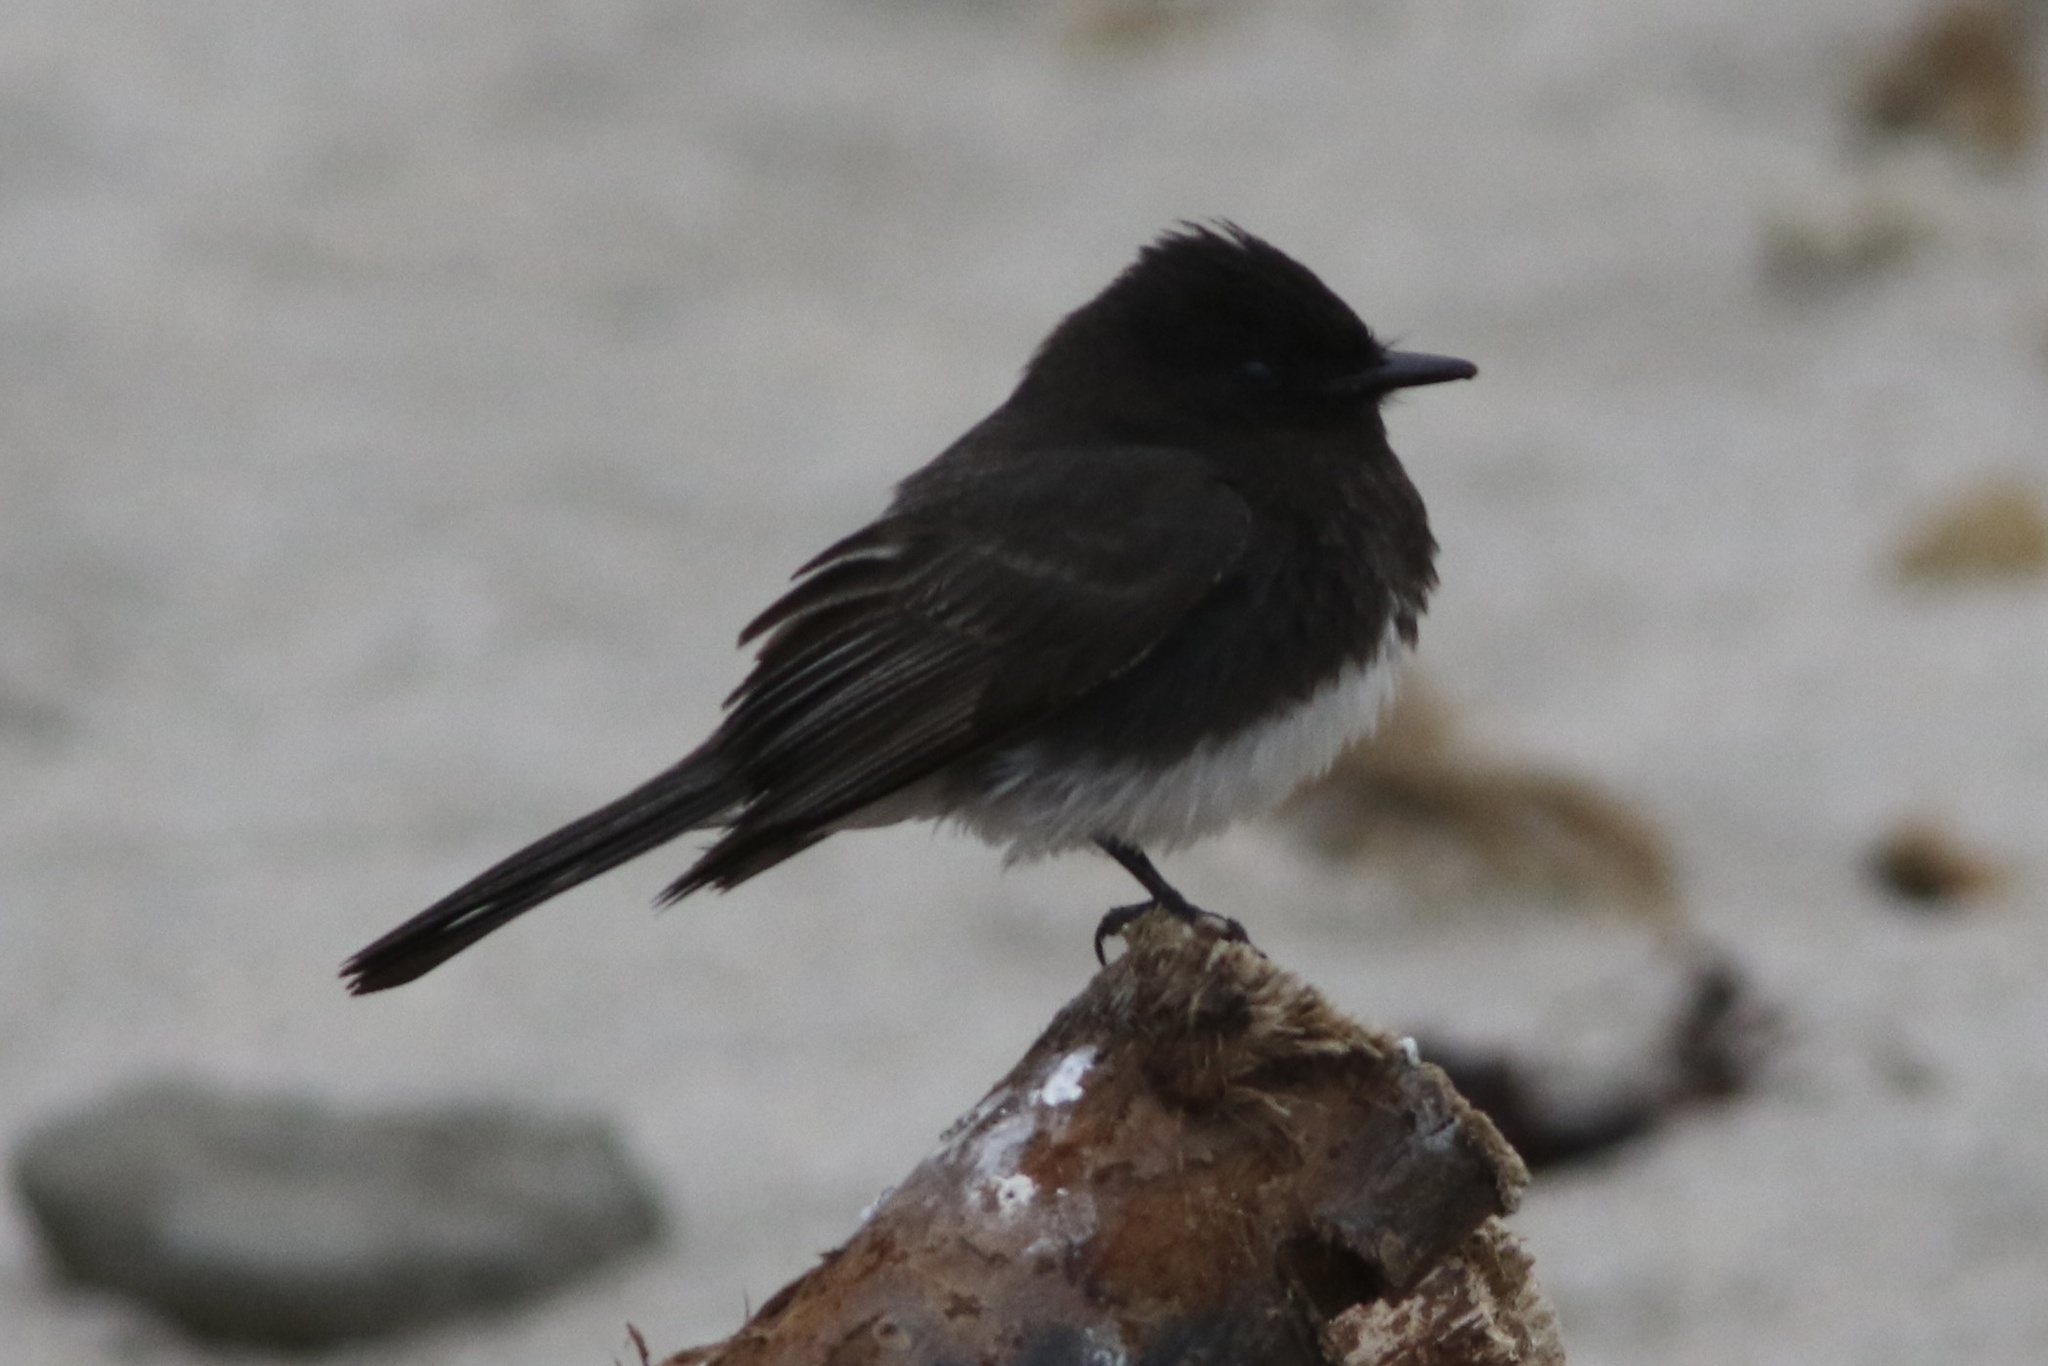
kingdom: Animalia
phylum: Chordata
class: Aves
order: Passeriformes
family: Tyrannidae
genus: Sayornis
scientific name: Sayornis nigricans
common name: Black phoebe
